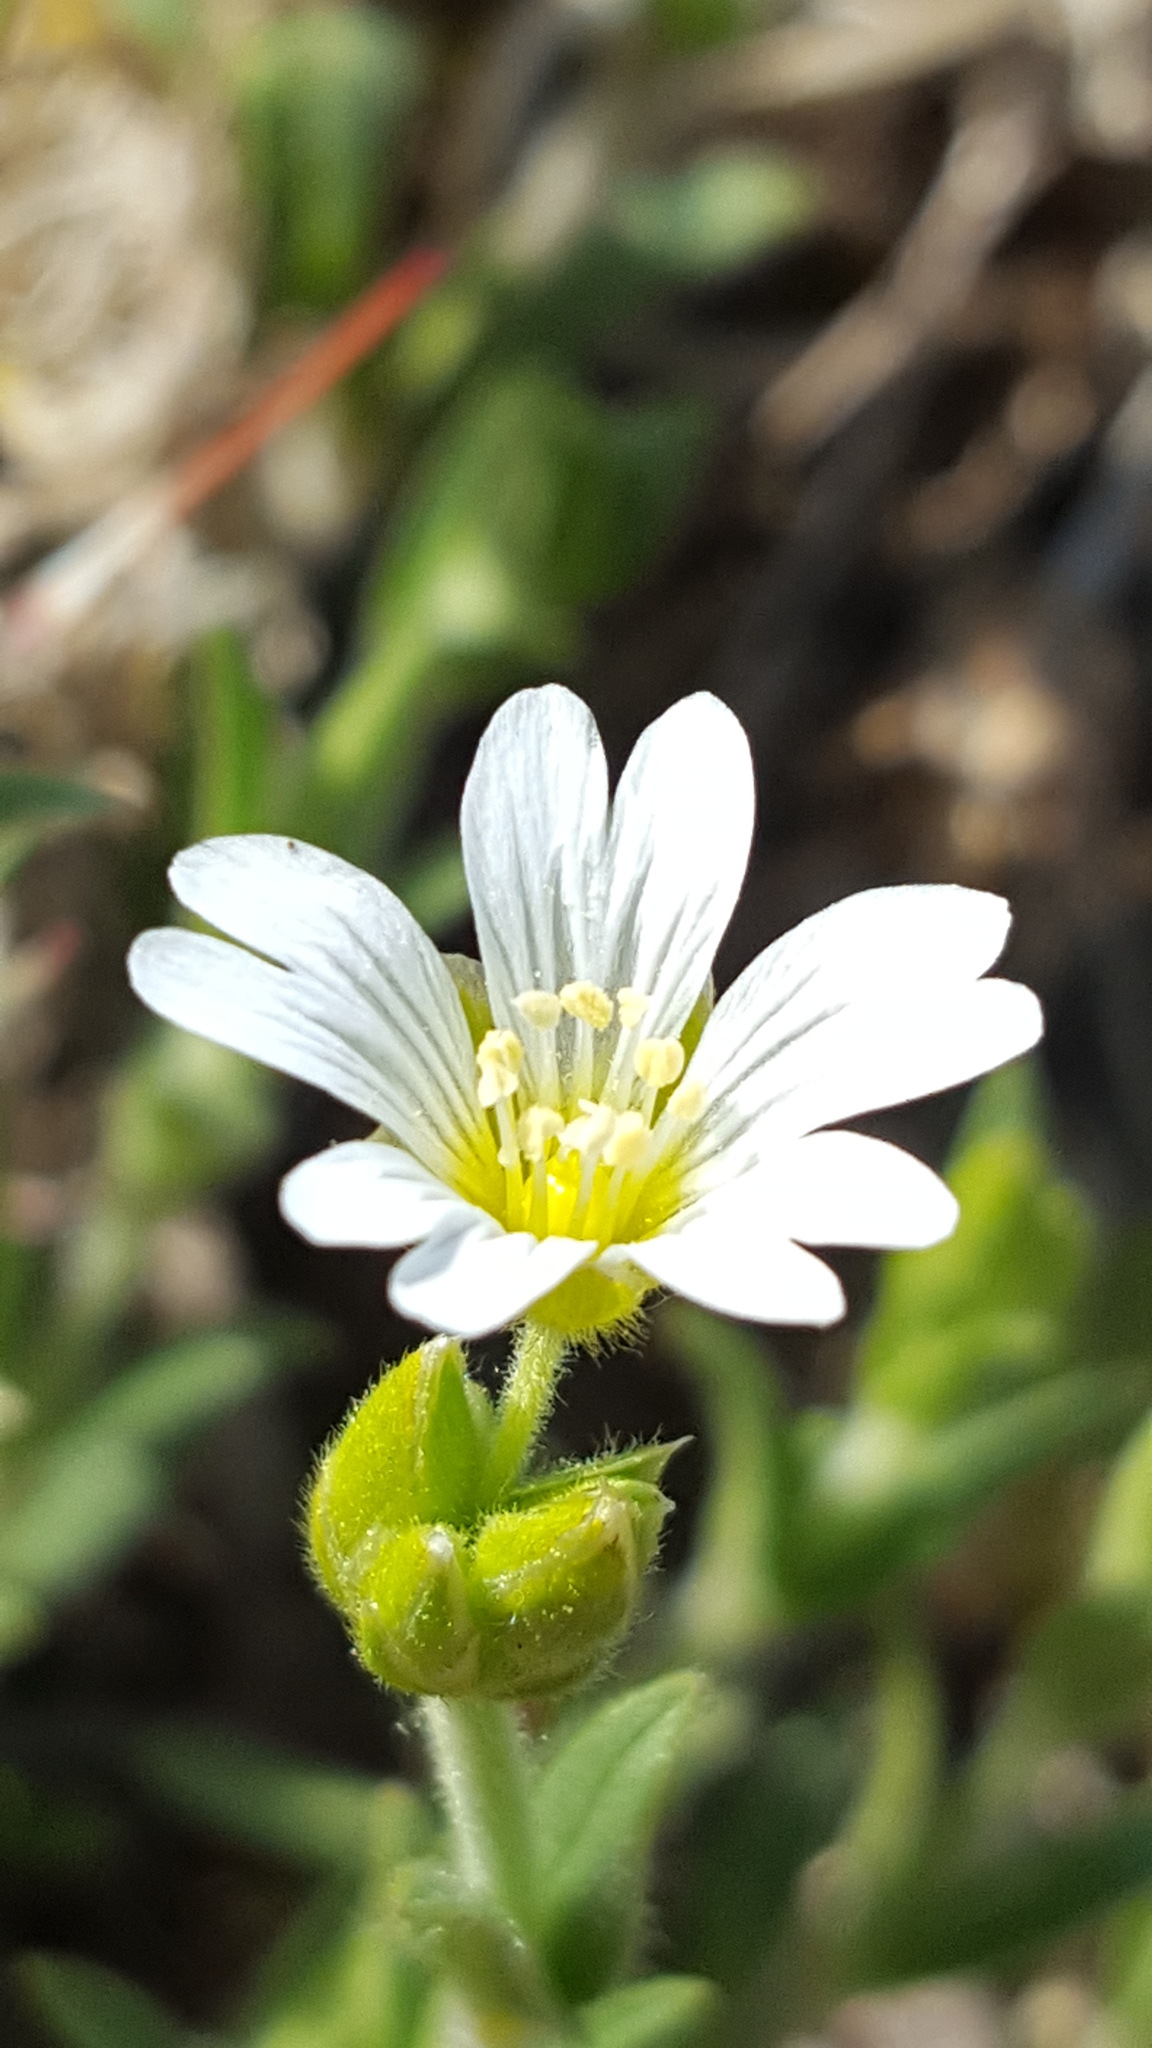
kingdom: Plantae
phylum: Tracheophyta
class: Magnoliopsida
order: Caryophyllales
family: Caryophyllaceae
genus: Cerastium
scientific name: Cerastium arvense
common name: Field mouse-ear
